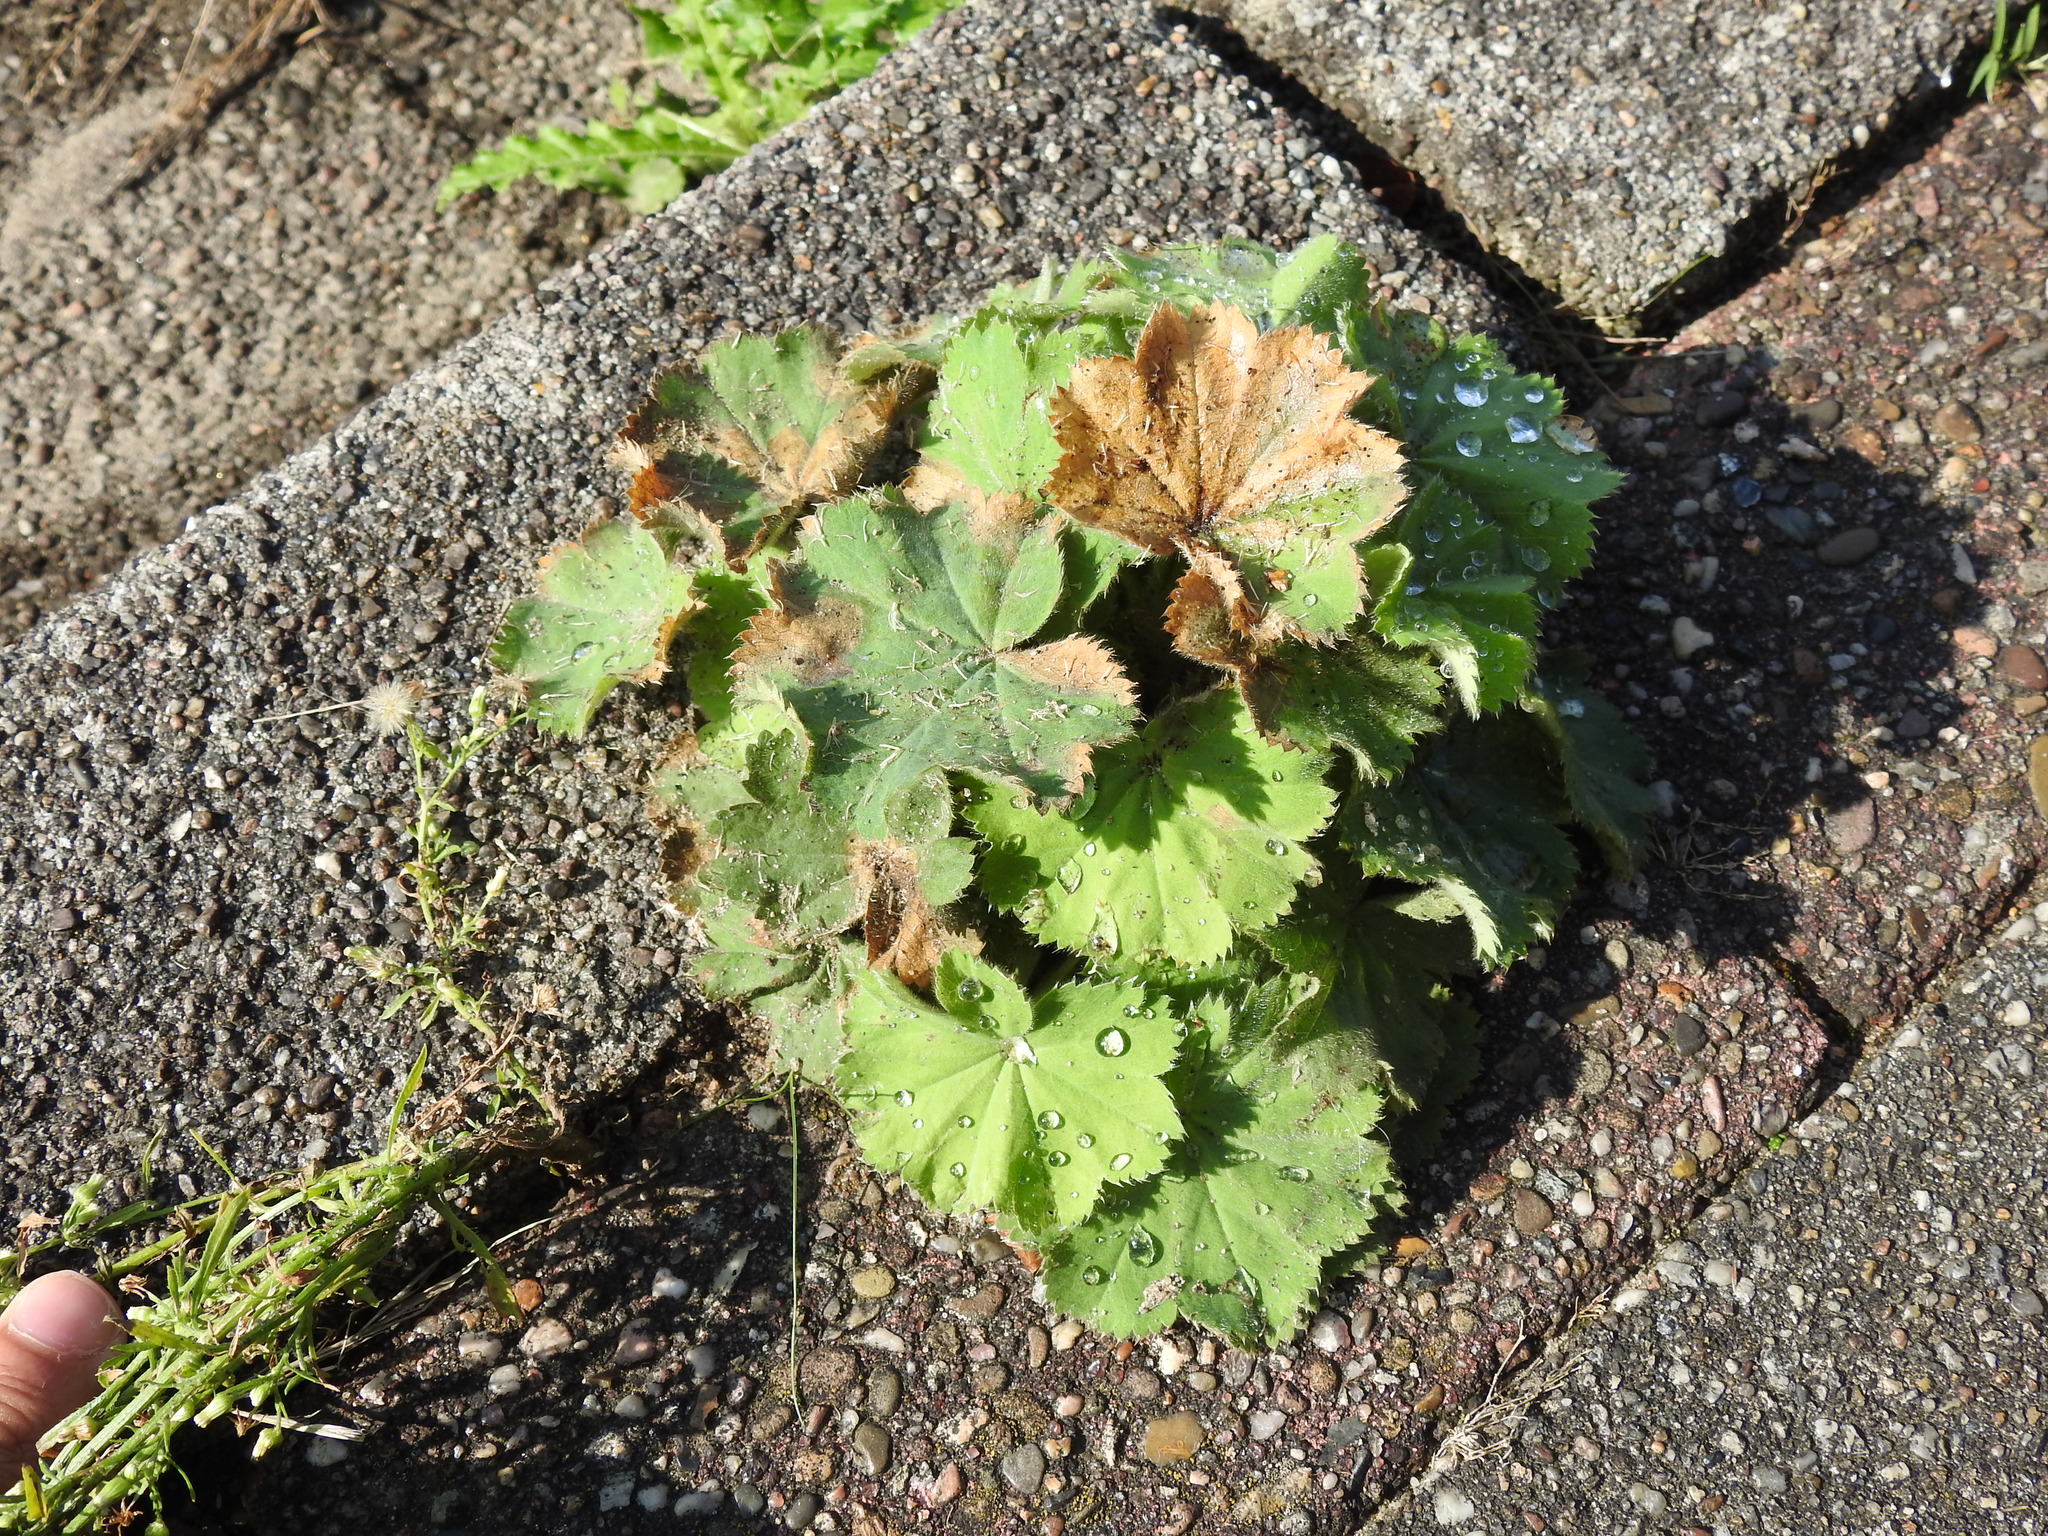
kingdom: Plantae
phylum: Tracheophyta
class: Magnoliopsida
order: Rosales
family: Rosaceae
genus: Alchemilla
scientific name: Alchemilla mollis
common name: Lady's-mantle
